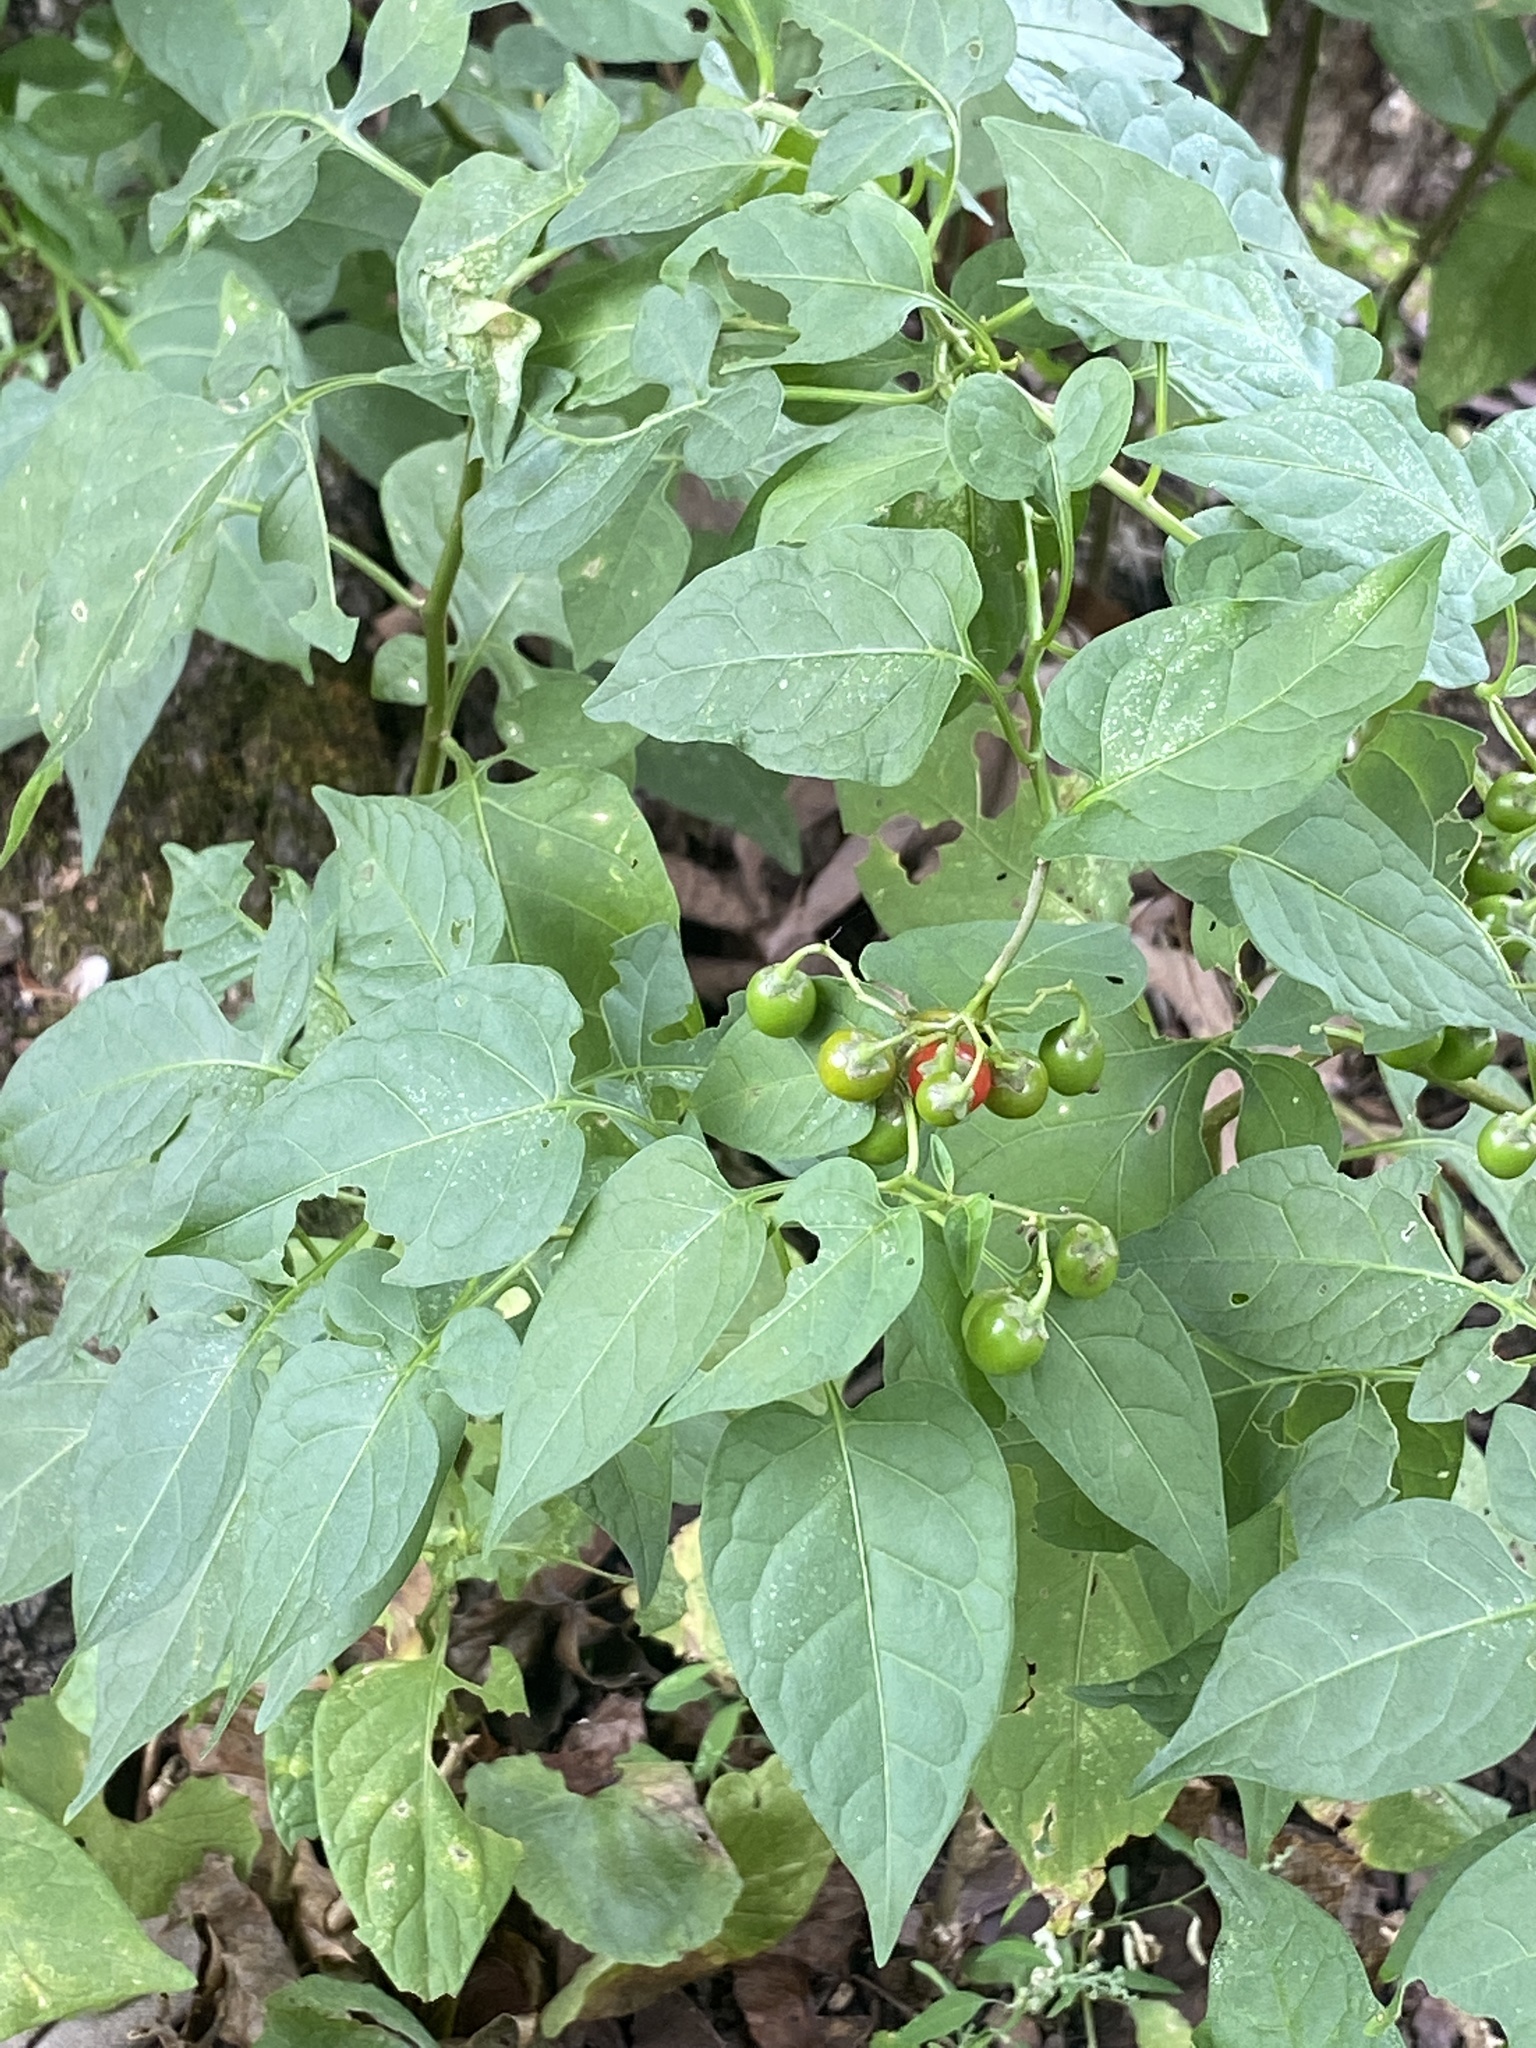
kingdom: Plantae
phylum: Tracheophyta
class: Magnoliopsida
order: Solanales
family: Solanaceae
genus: Solanum
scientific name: Solanum dulcamara
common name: Climbing nightshade
